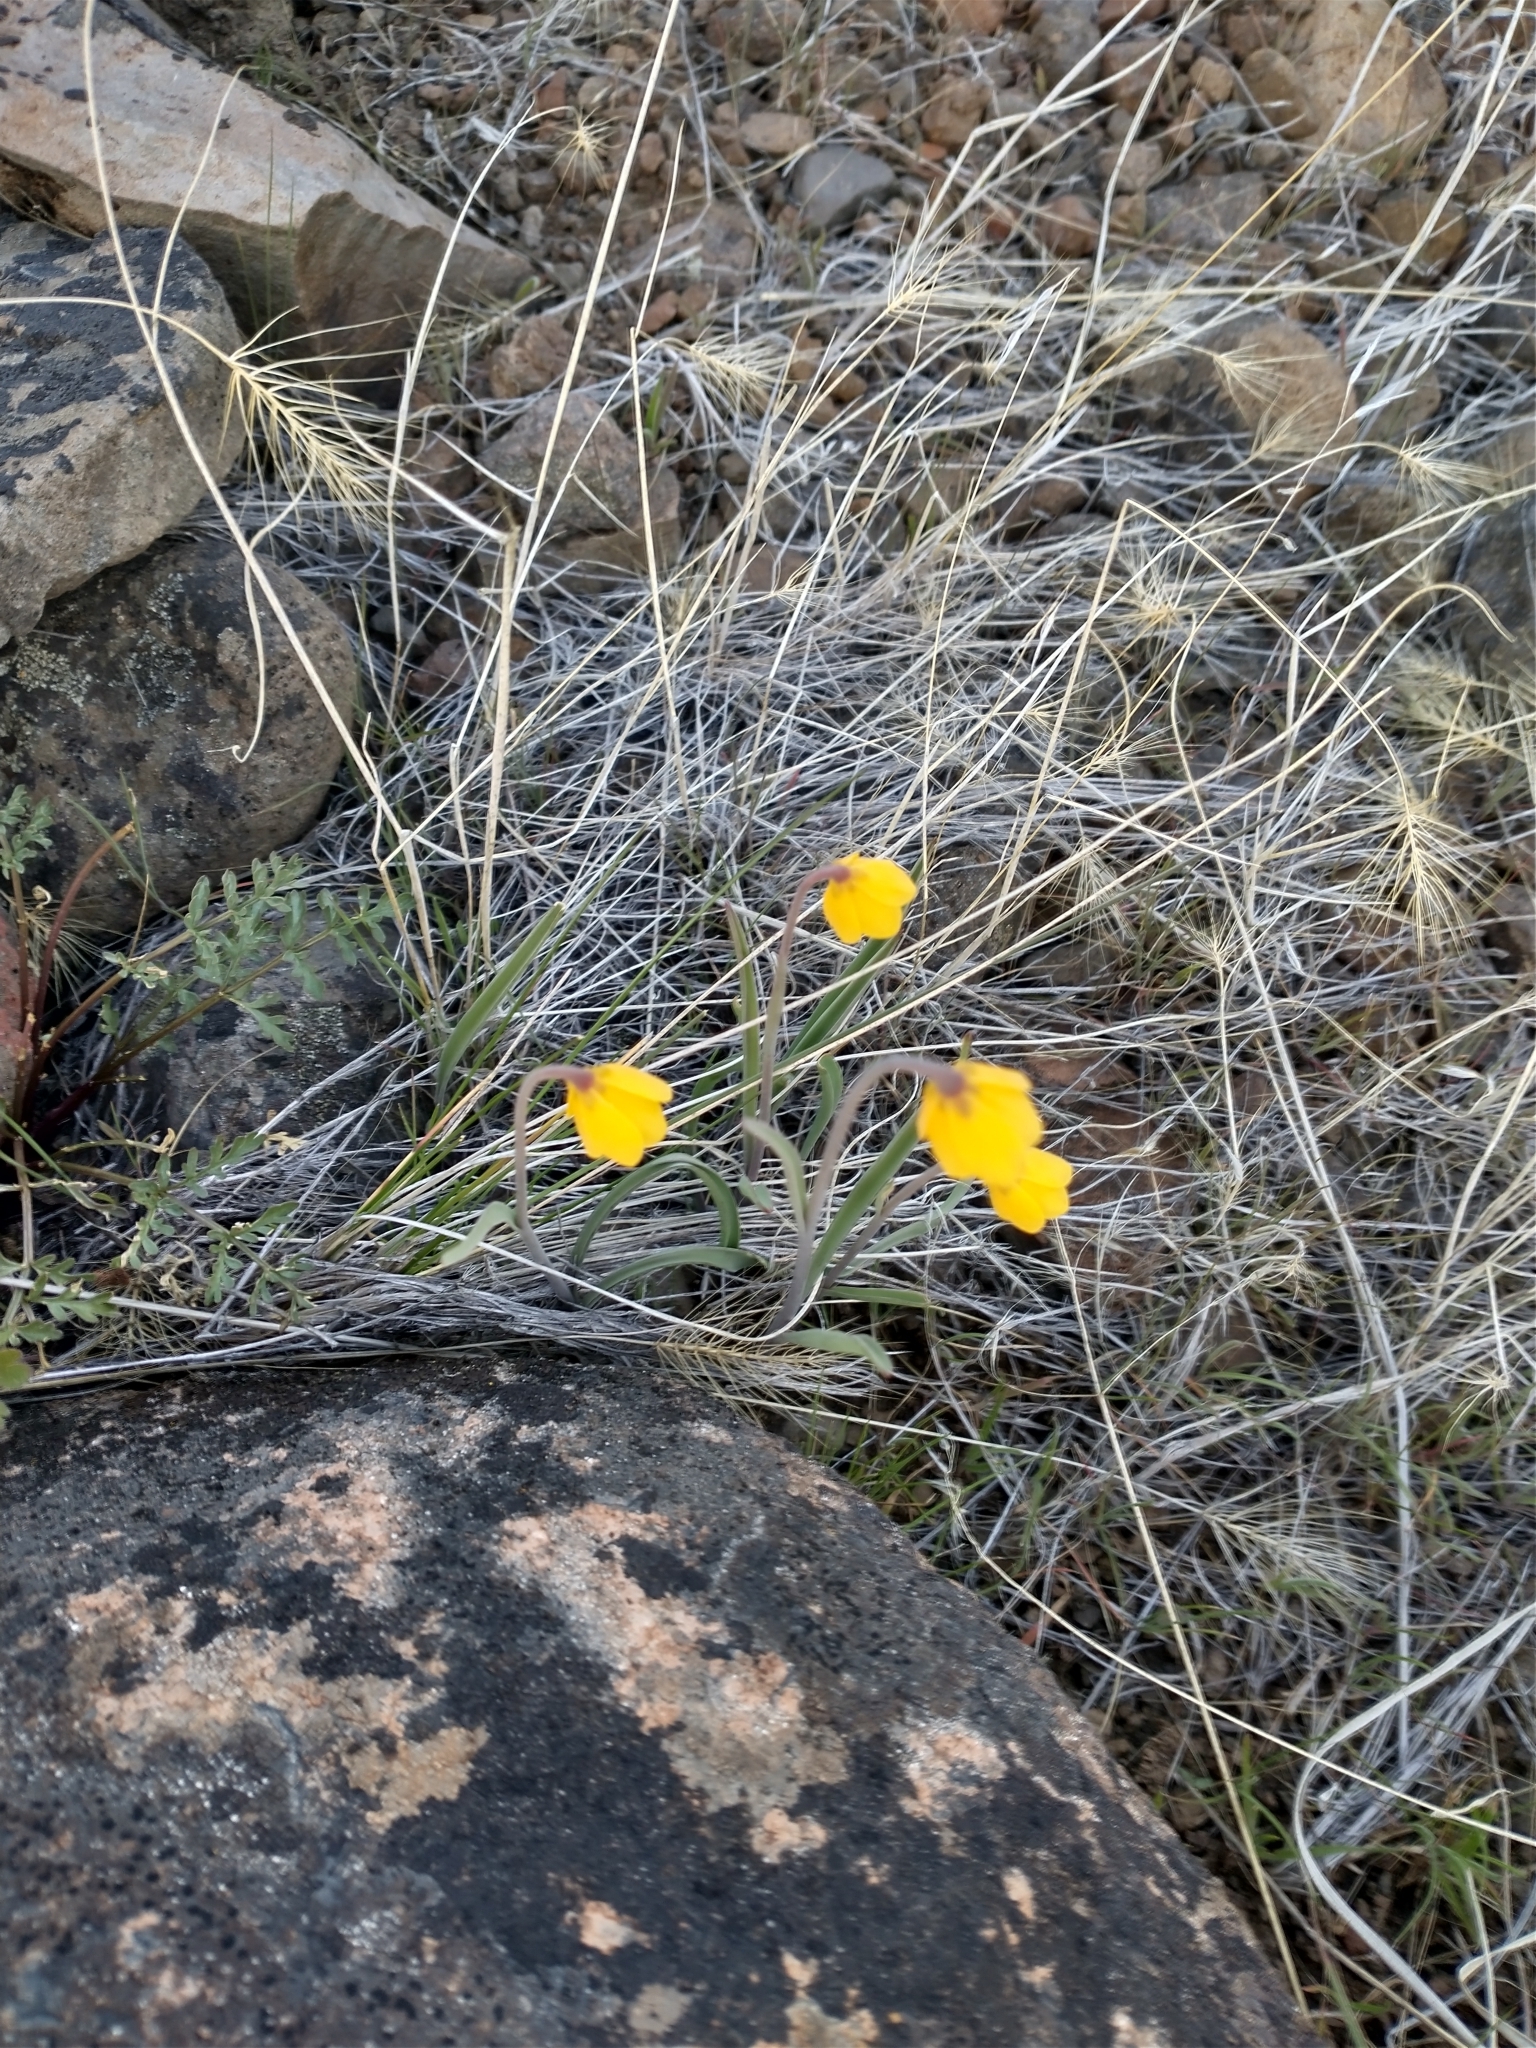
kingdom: Plantae
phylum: Tracheophyta
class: Liliopsida
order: Liliales
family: Liliaceae
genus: Fritillaria
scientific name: Fritillaria pudica
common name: Yellow fritillary
